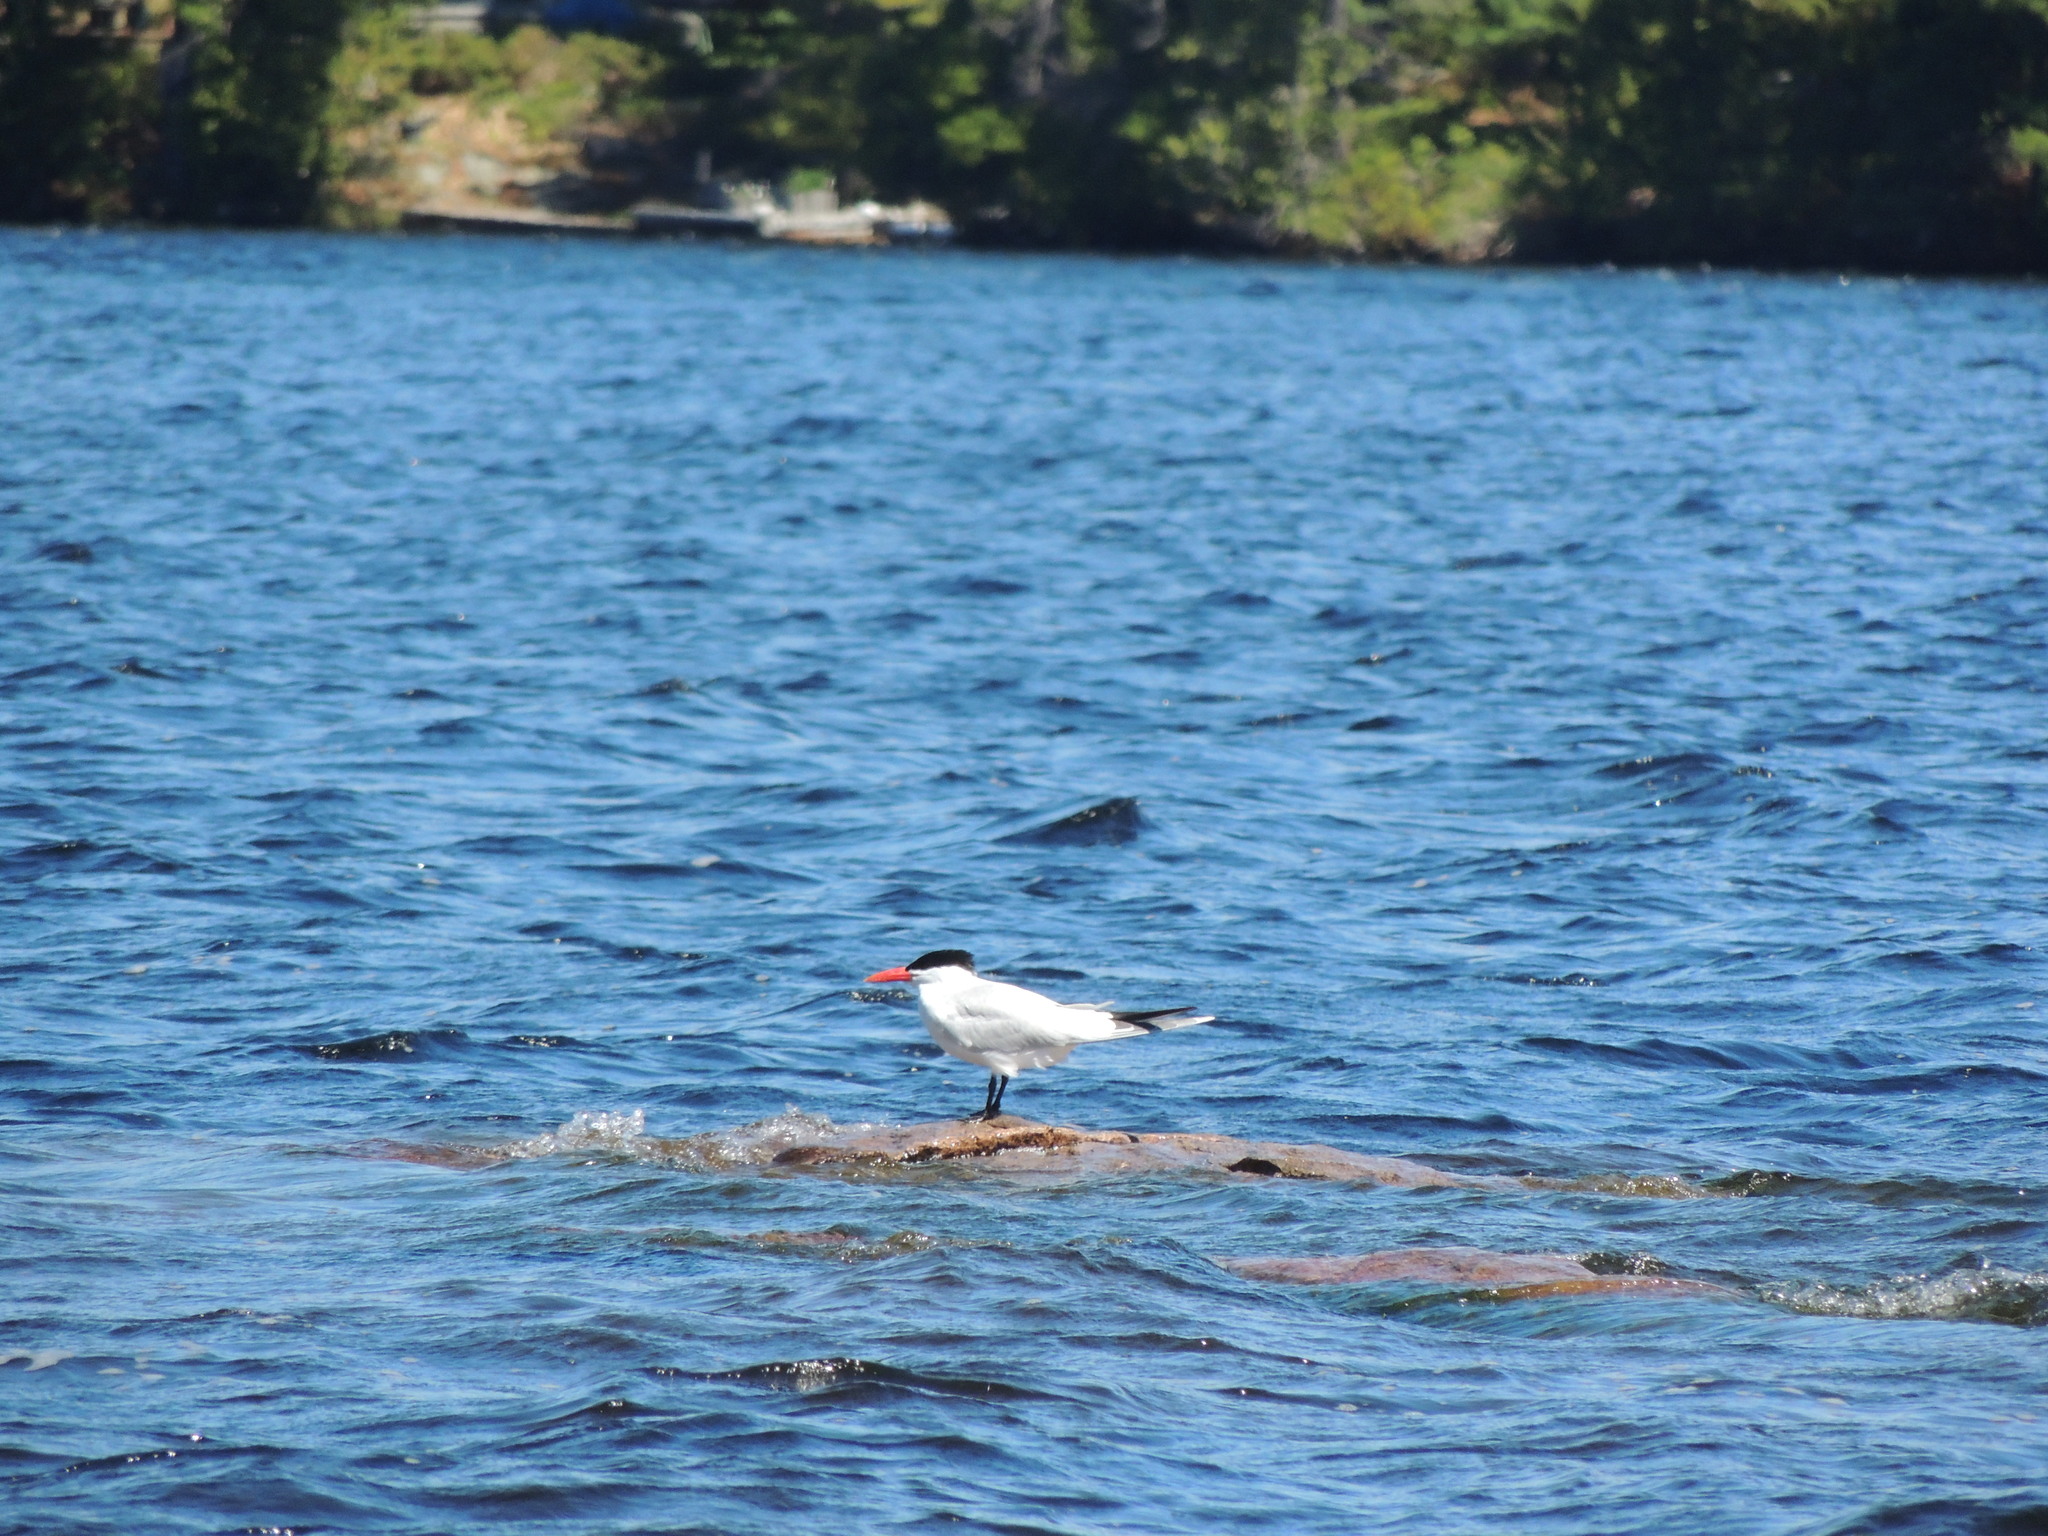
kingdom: Animalia
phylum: Chordata
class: Aves
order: Charadriiformes
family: Laridae
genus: Hydroprogne
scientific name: Hydroprogne caspia
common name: Caspian tern
